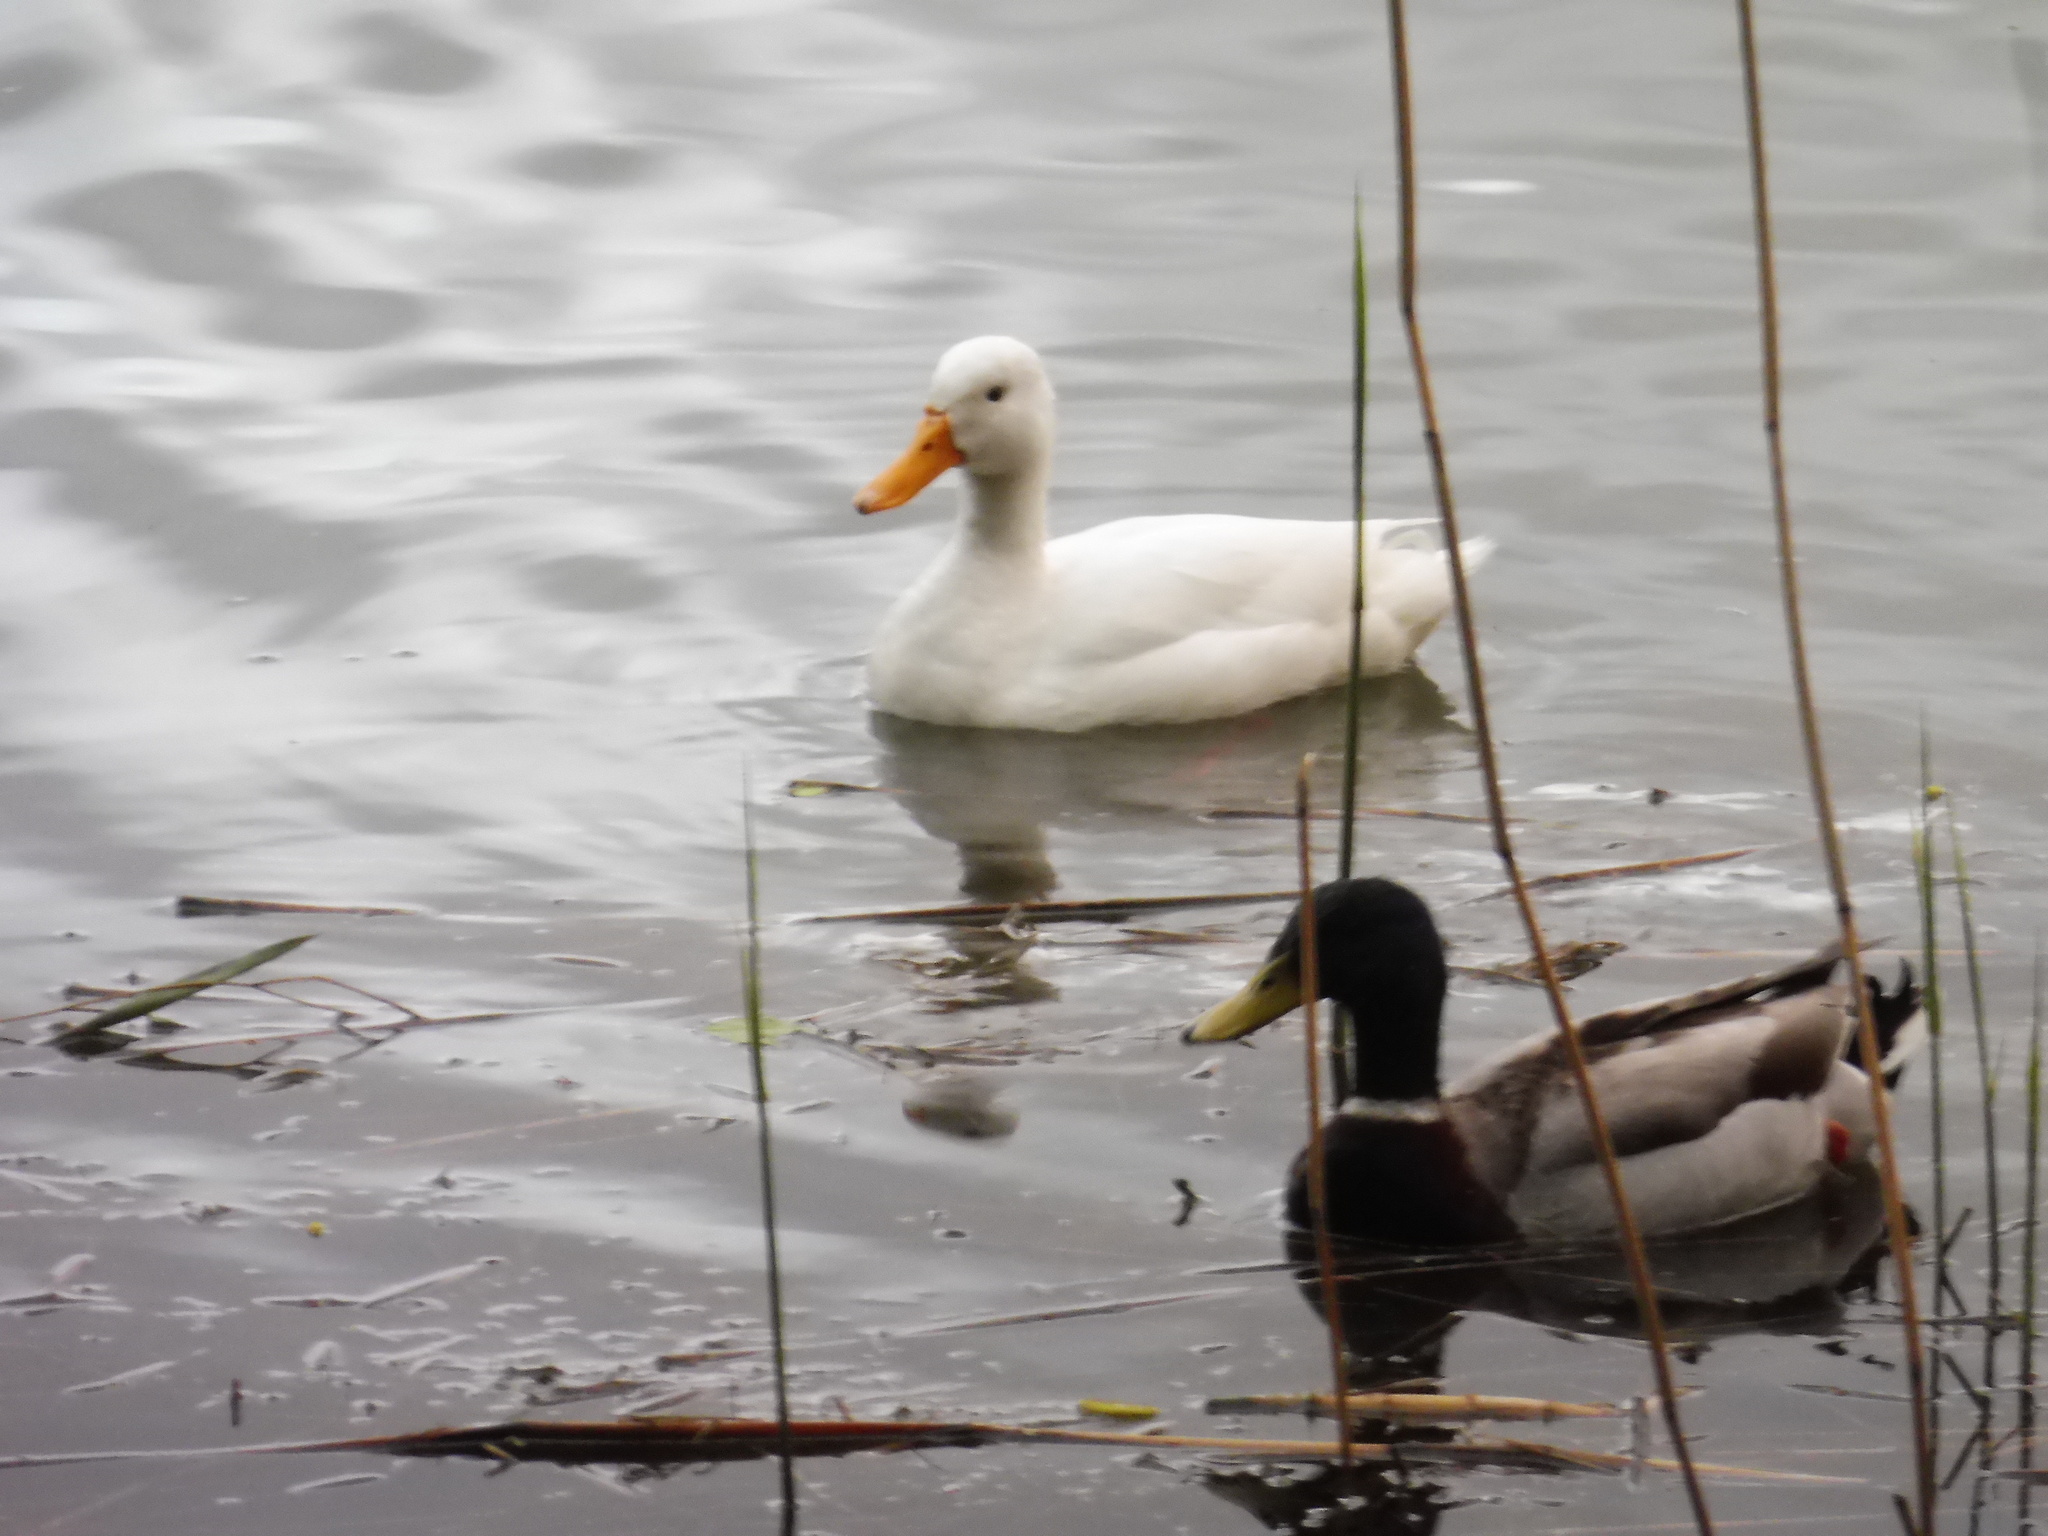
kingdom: Animalia
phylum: Chordata
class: Aves
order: Anseriformes
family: Anatidae
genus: Anas
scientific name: Anas platyrhynchos
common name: Mallard
